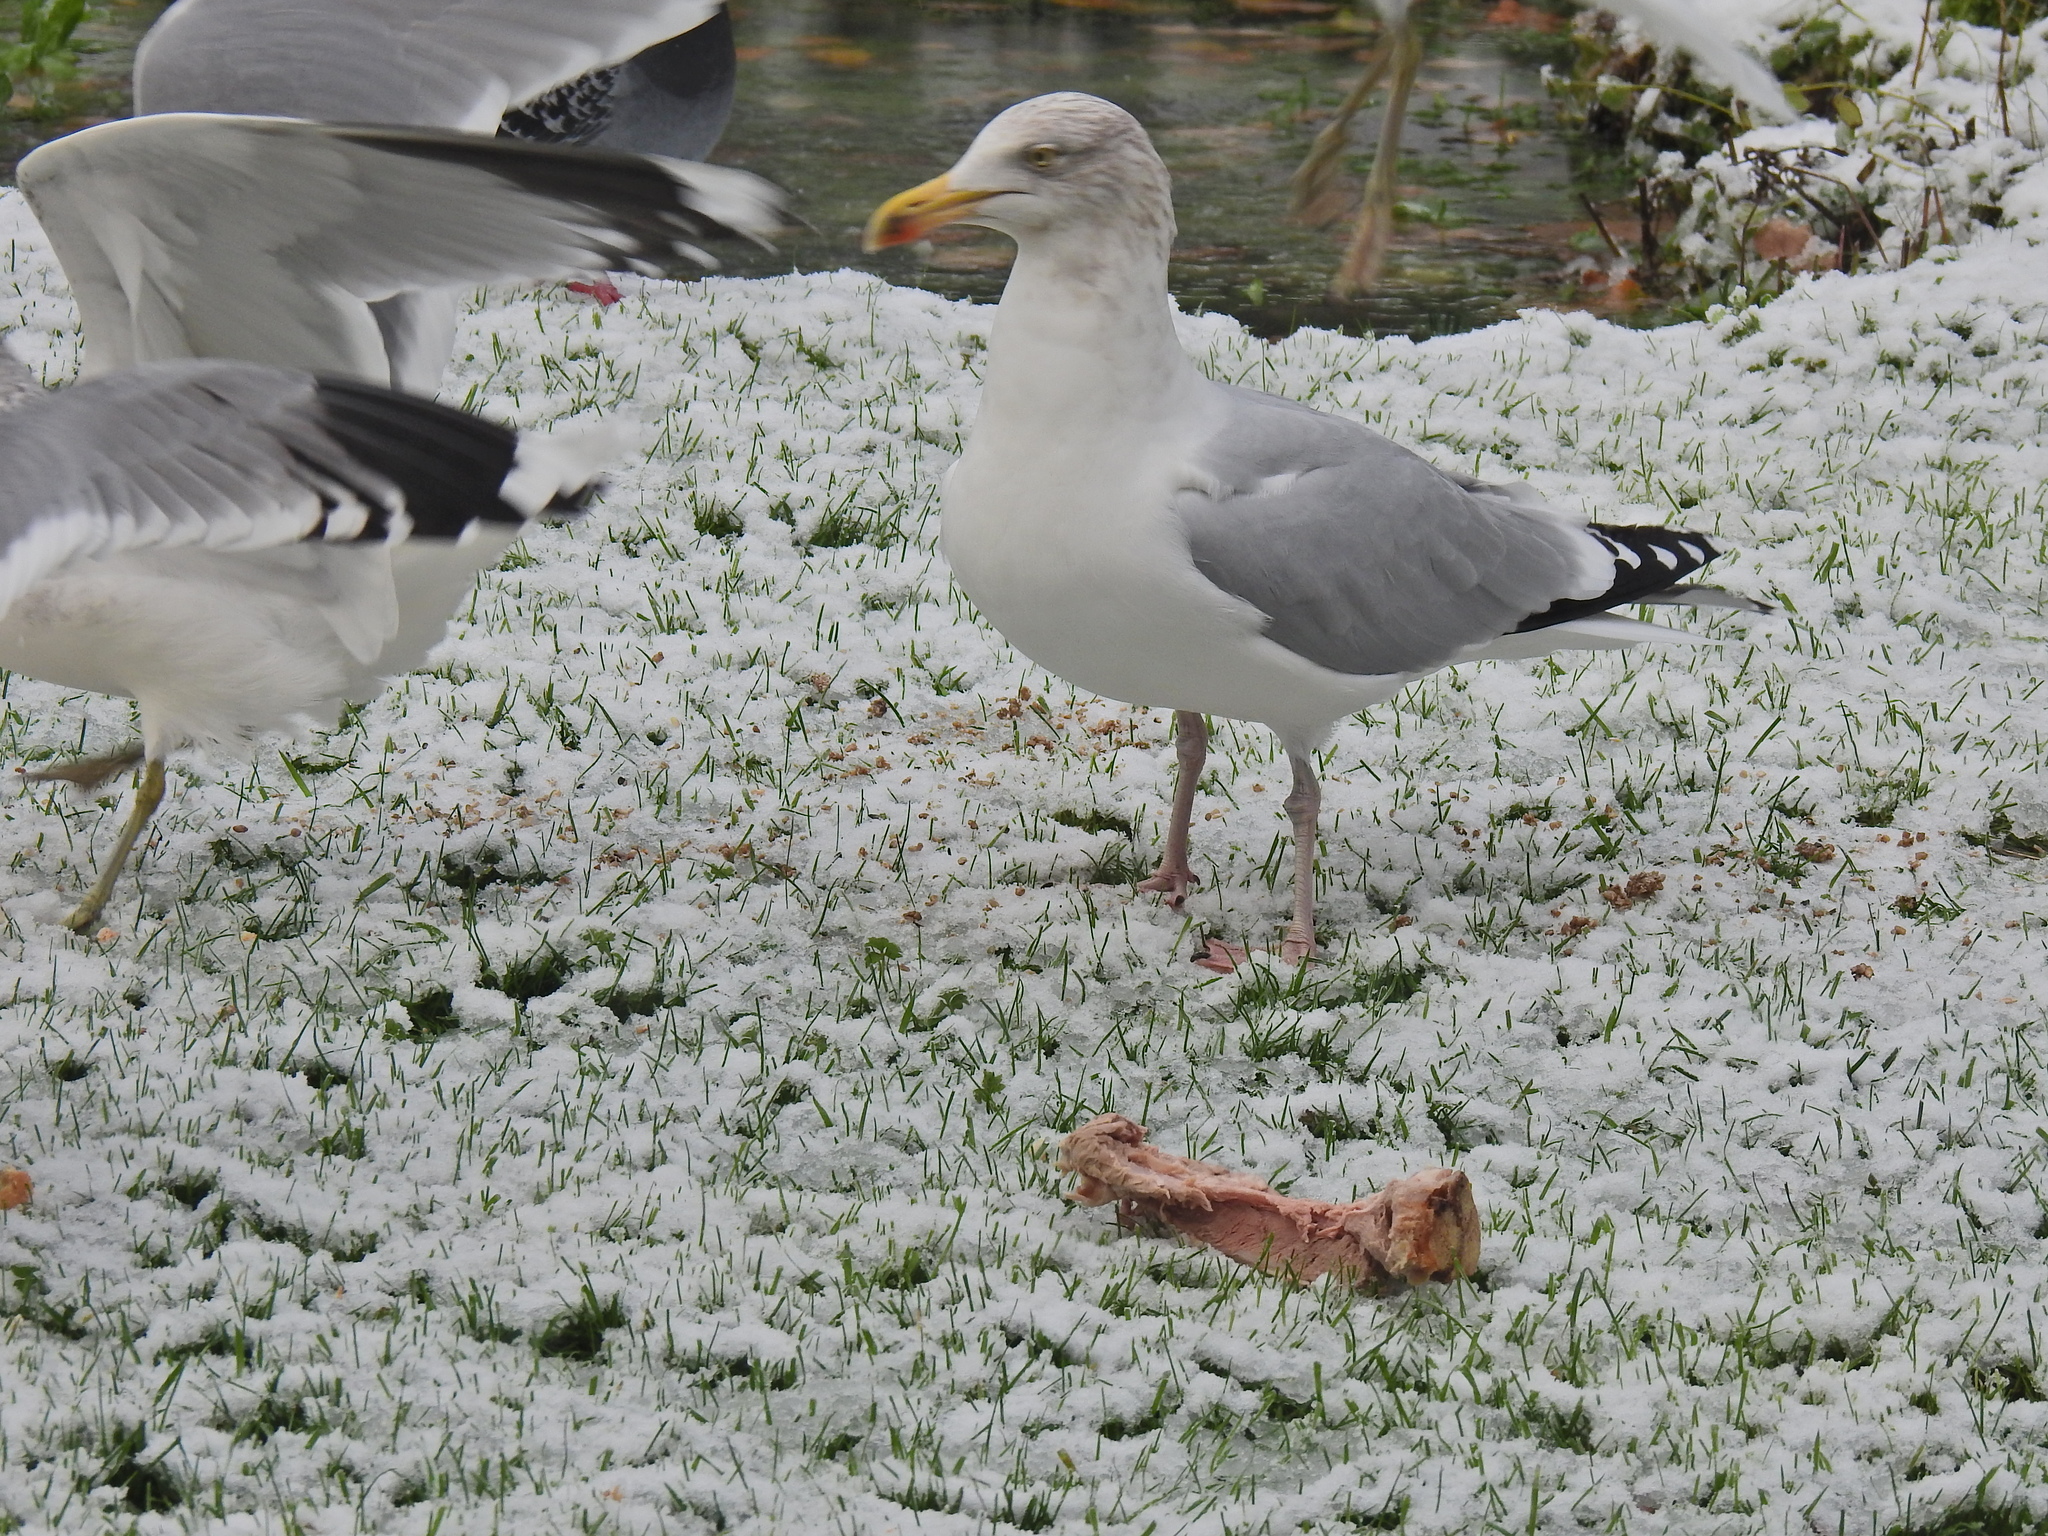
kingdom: Animalia
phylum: Chordata
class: Aves
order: Charadriiformes
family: Laridae
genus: Larus
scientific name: Larus argentatus
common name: Herring gull
